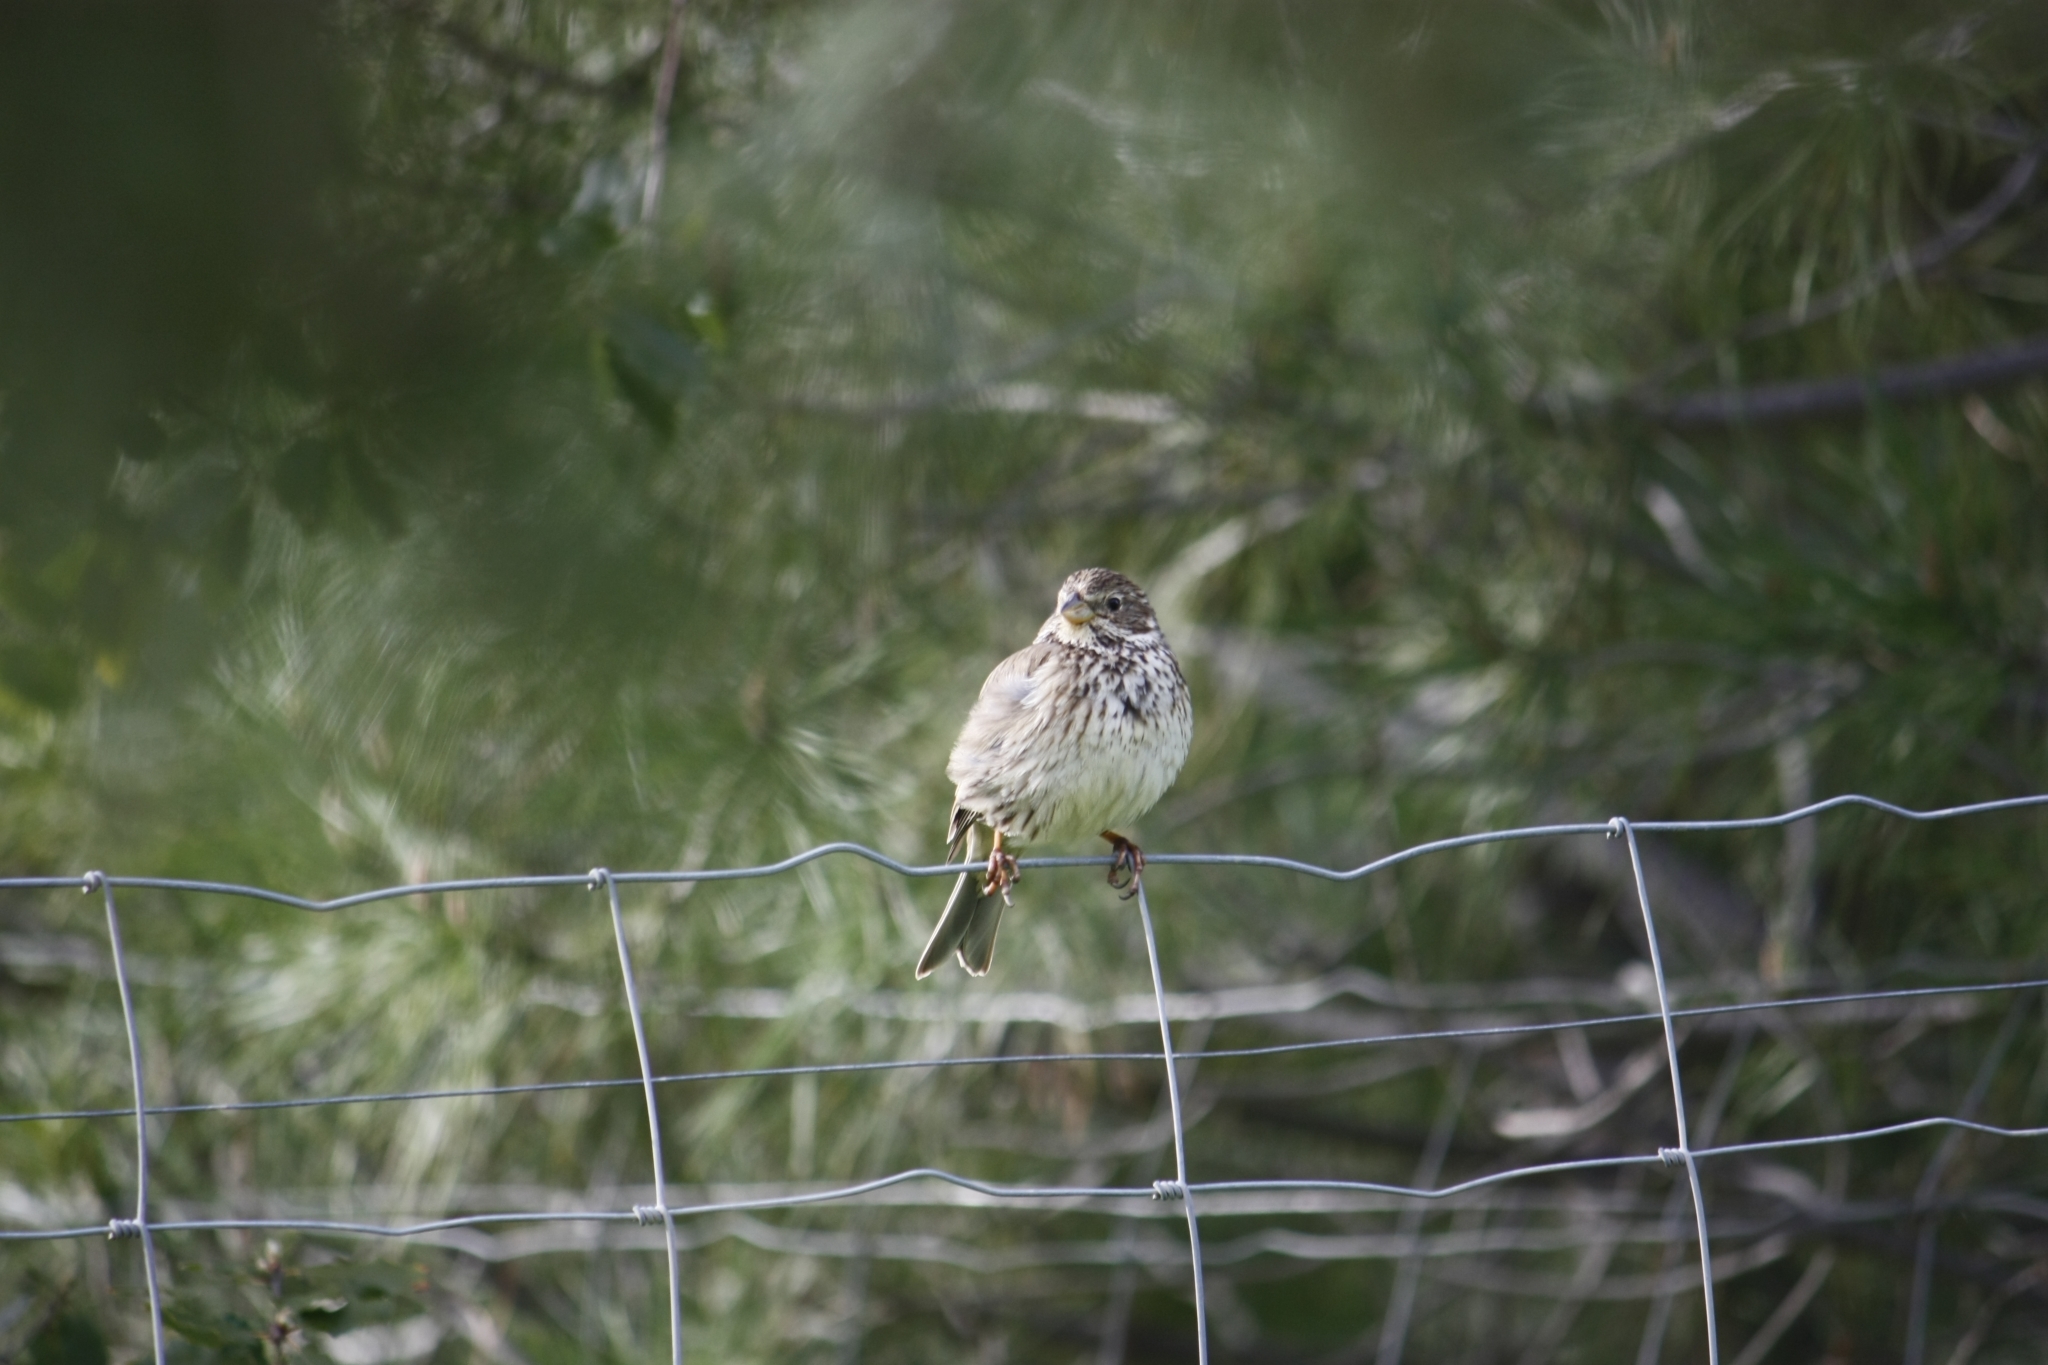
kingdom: Animalia
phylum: Chordata
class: Aves
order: Passeriformes
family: Emberizidae
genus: Emberiza
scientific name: Emberiza calandra
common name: Corn bunting
